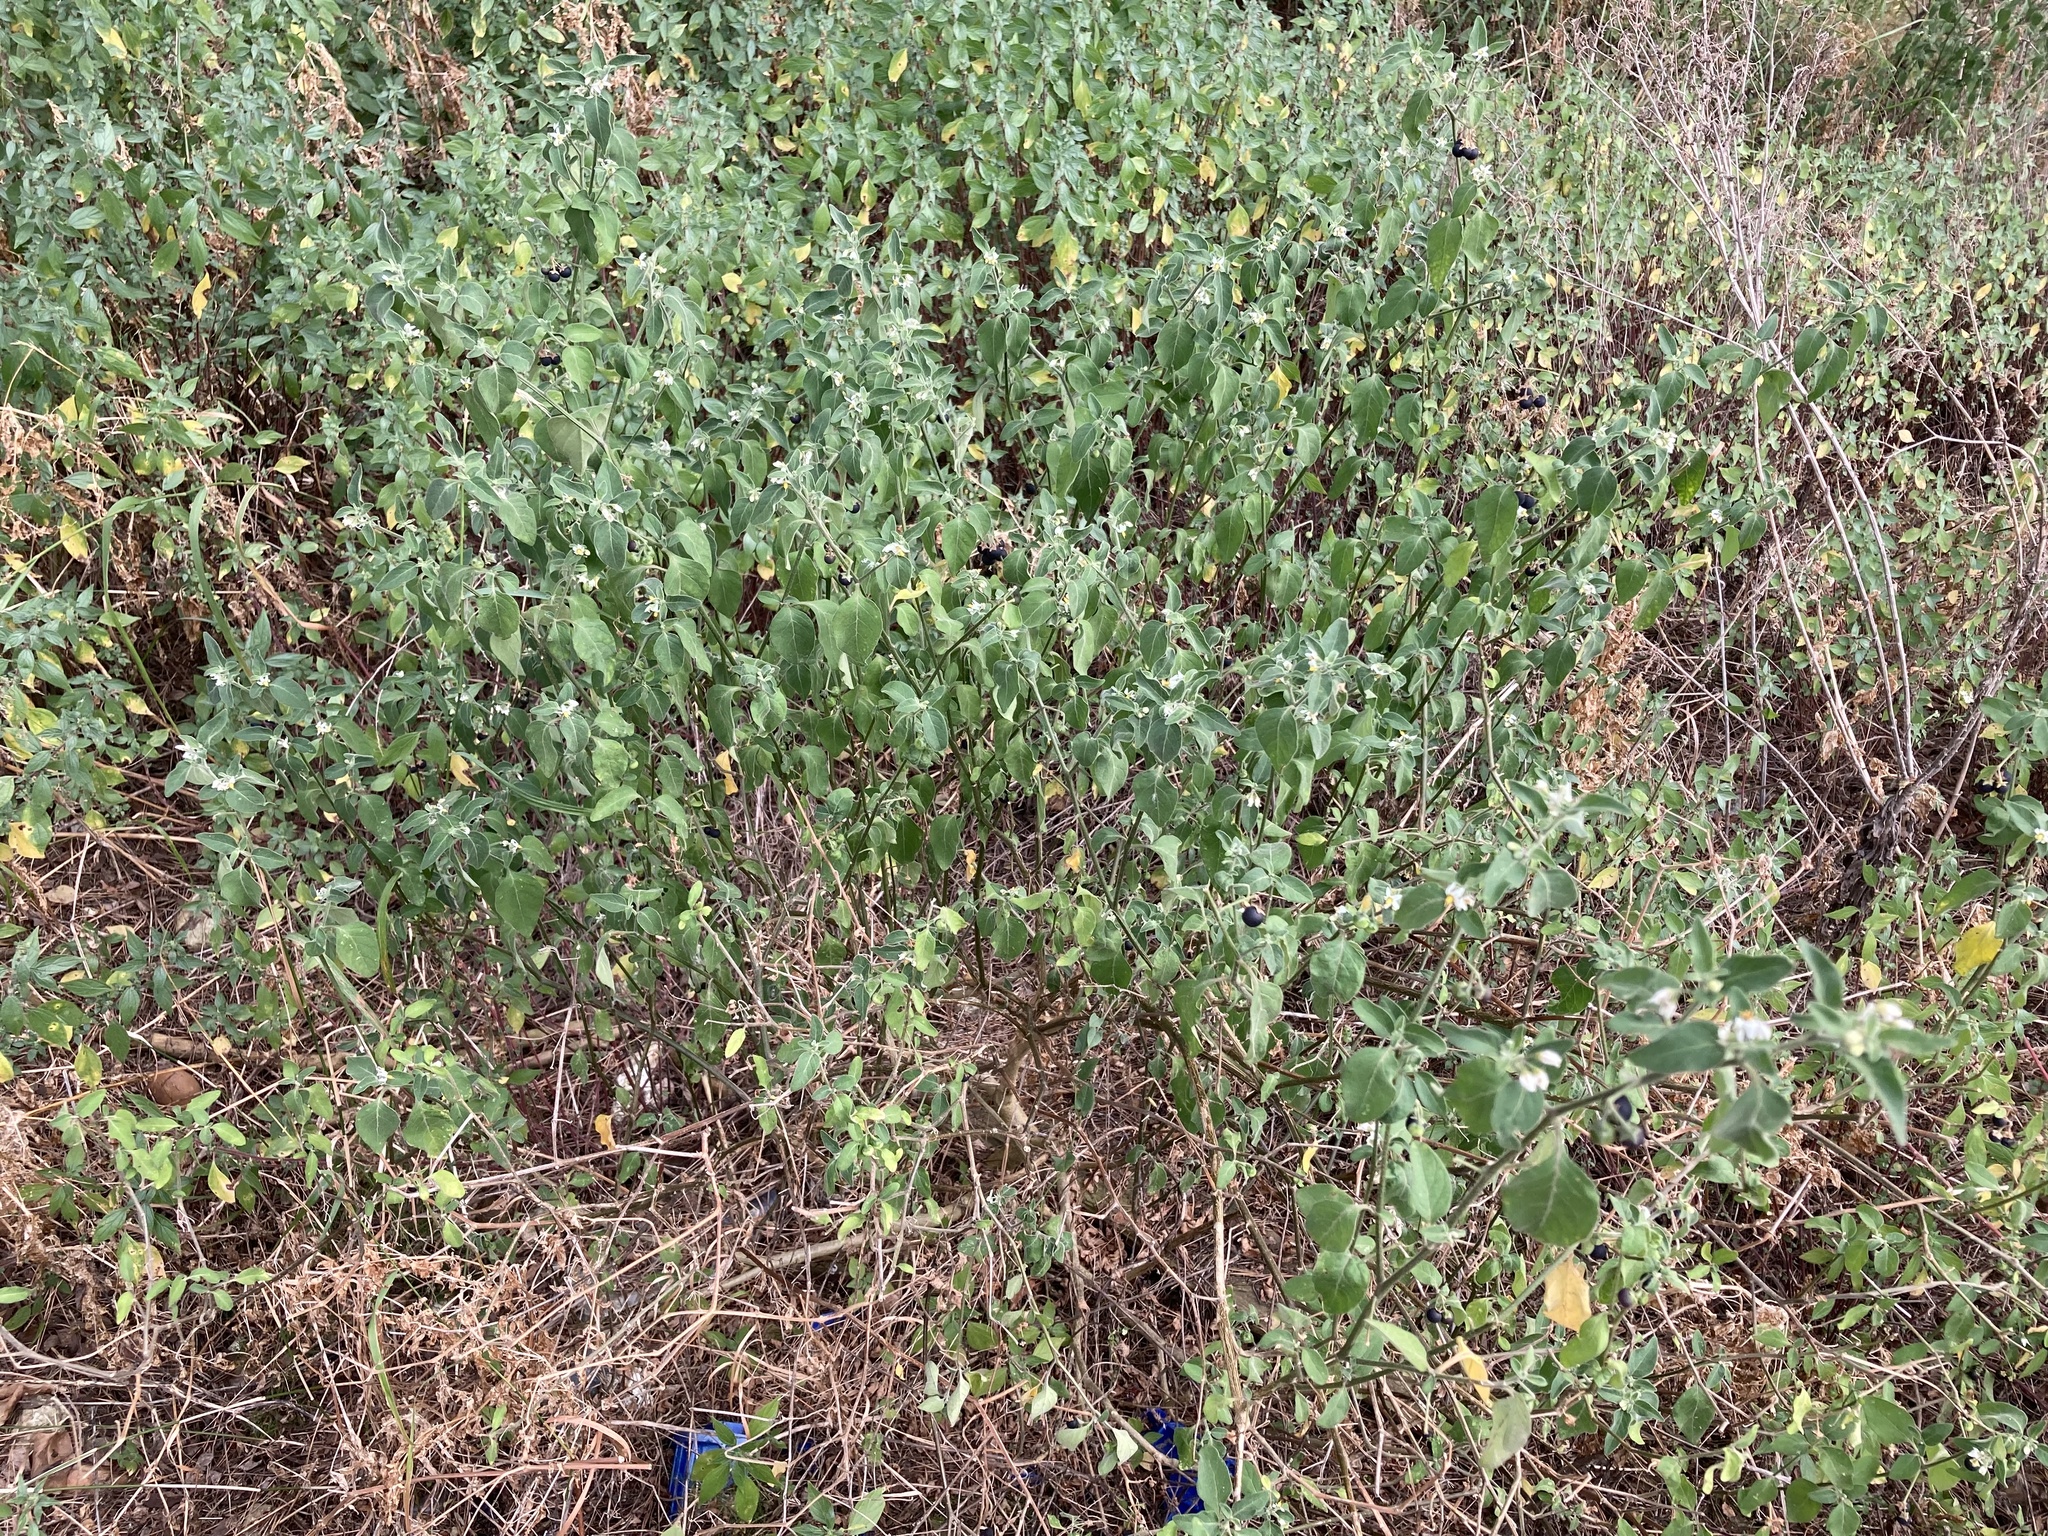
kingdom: Plantae
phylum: Tracheophyta
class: Magnoliopsida
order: Solanales
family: Solanaceae
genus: Solanum
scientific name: Solanum chenopodioides
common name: Tall nightshade
